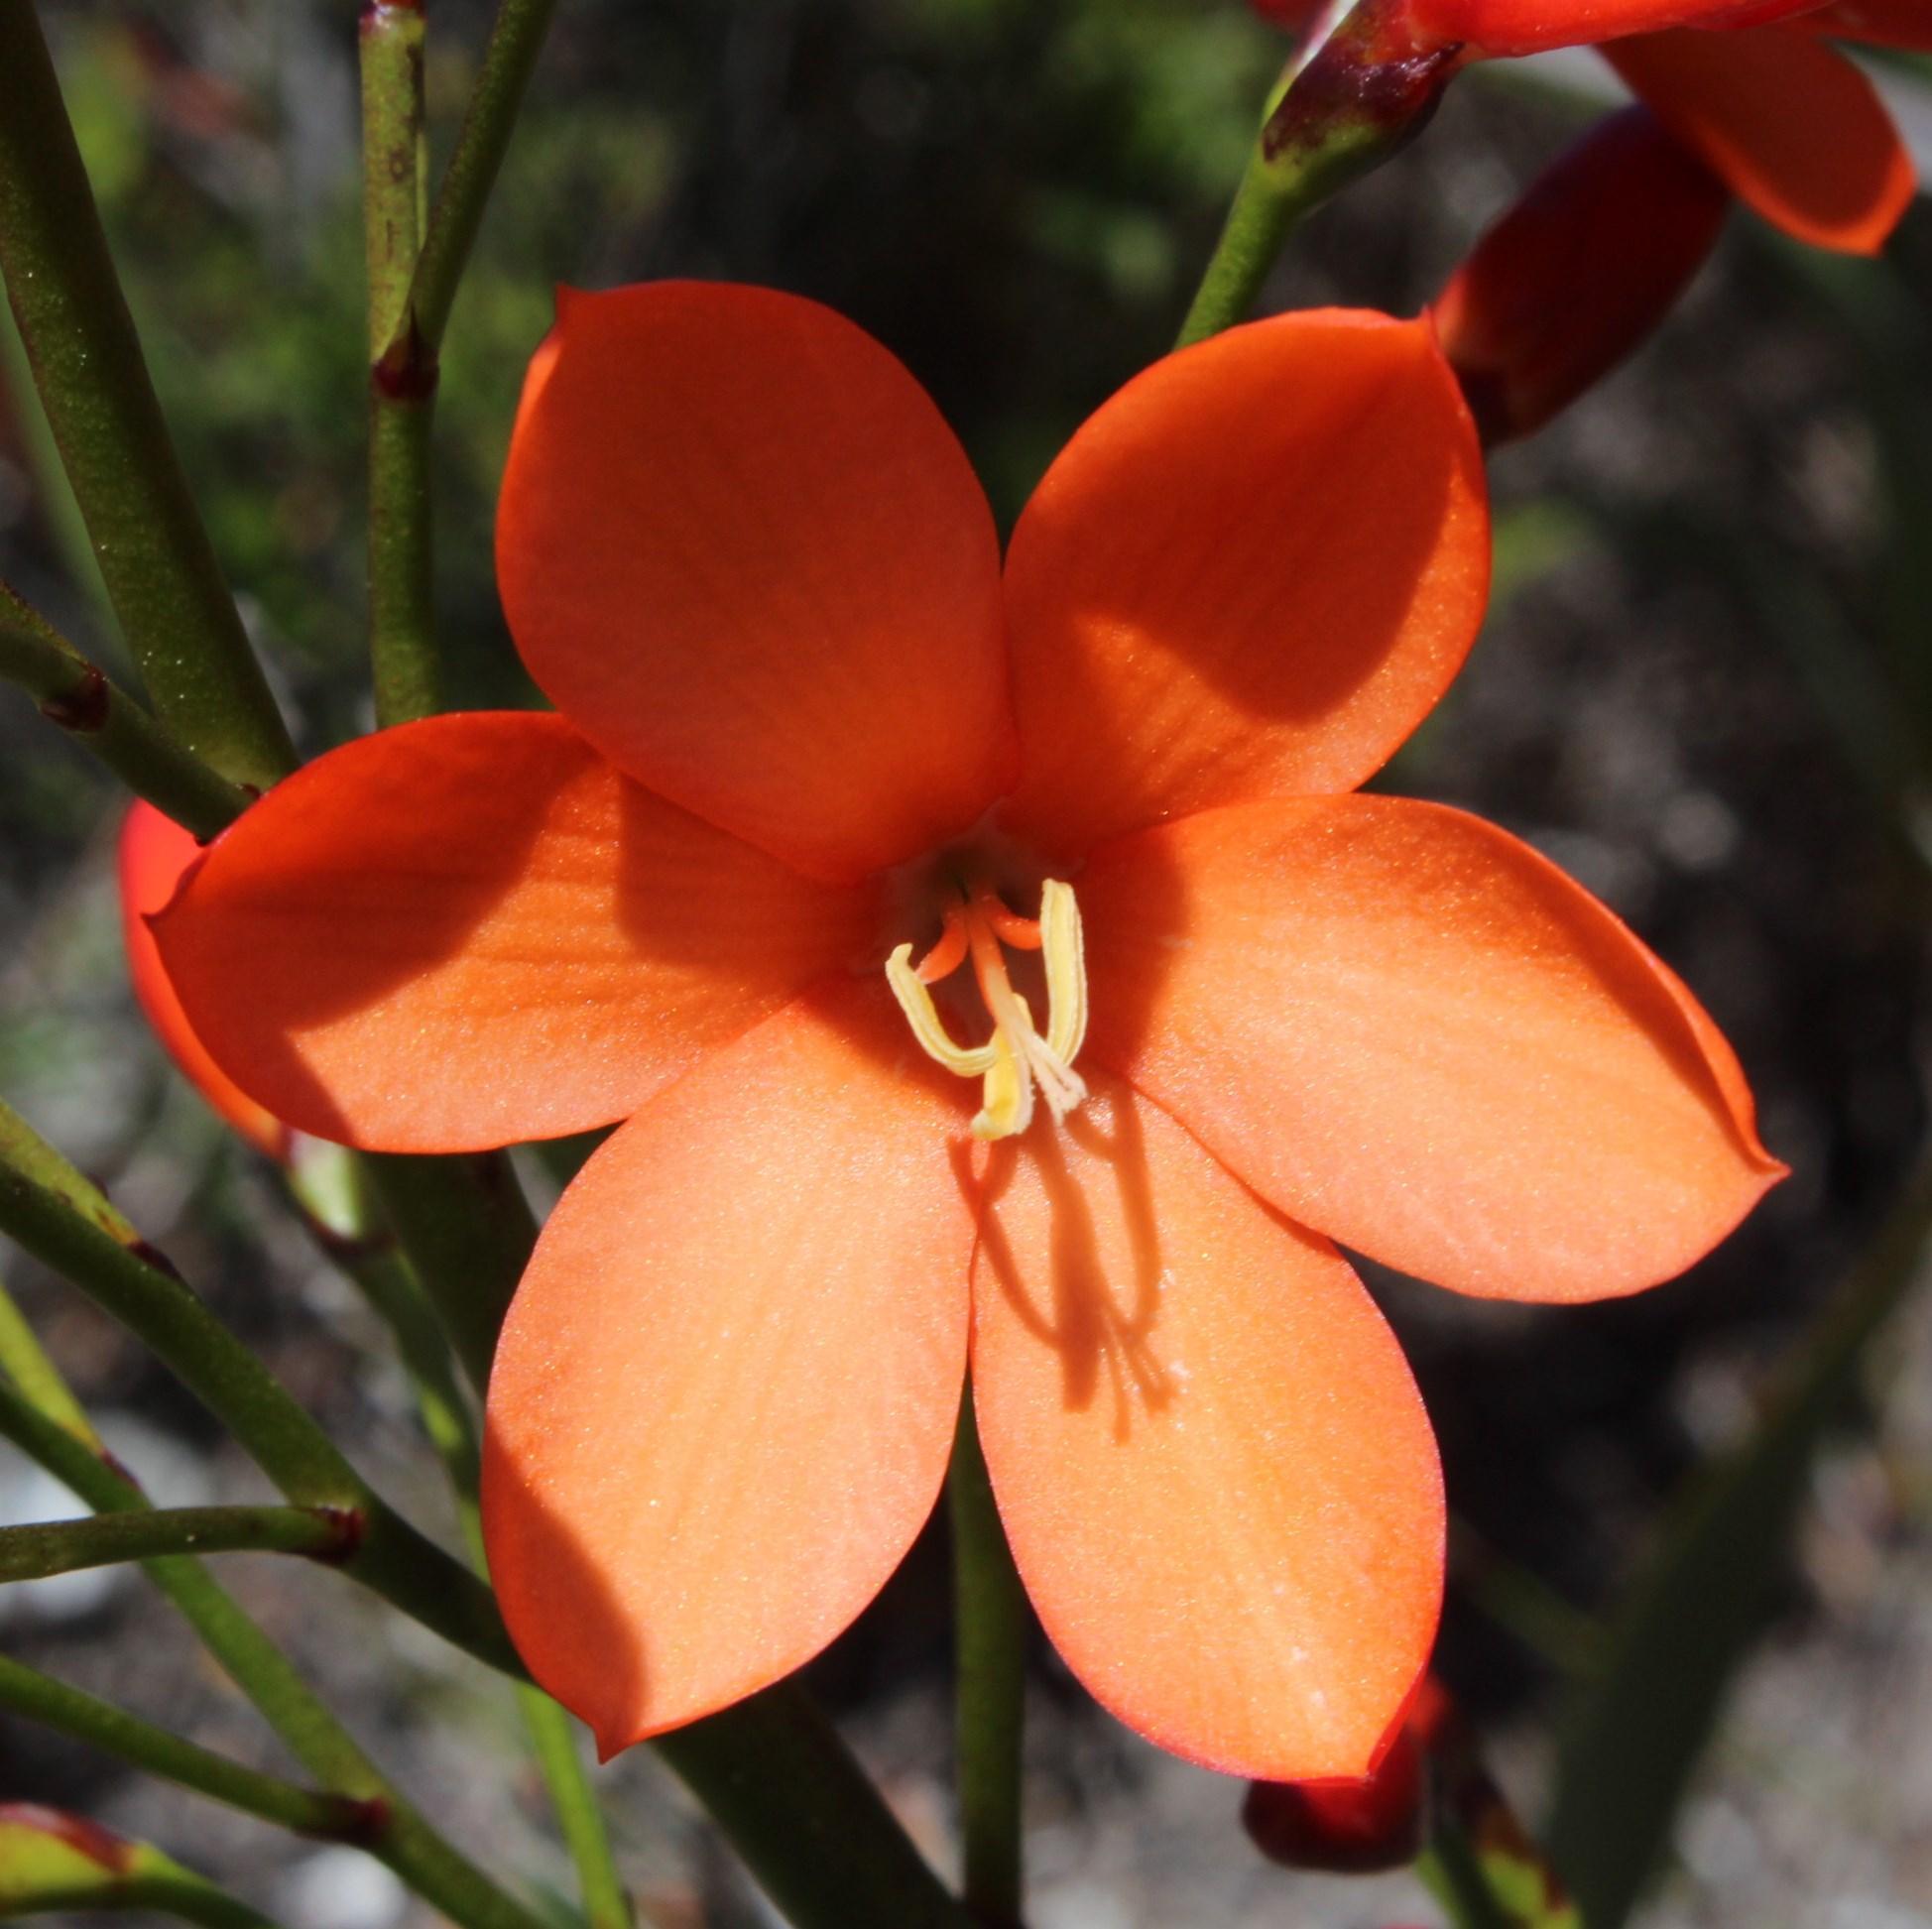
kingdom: Plantae
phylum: Tracheophyta
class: Liliopsida
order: Asparagales
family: Iridaceae
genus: Pillansia
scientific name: Pillansia templemannii
